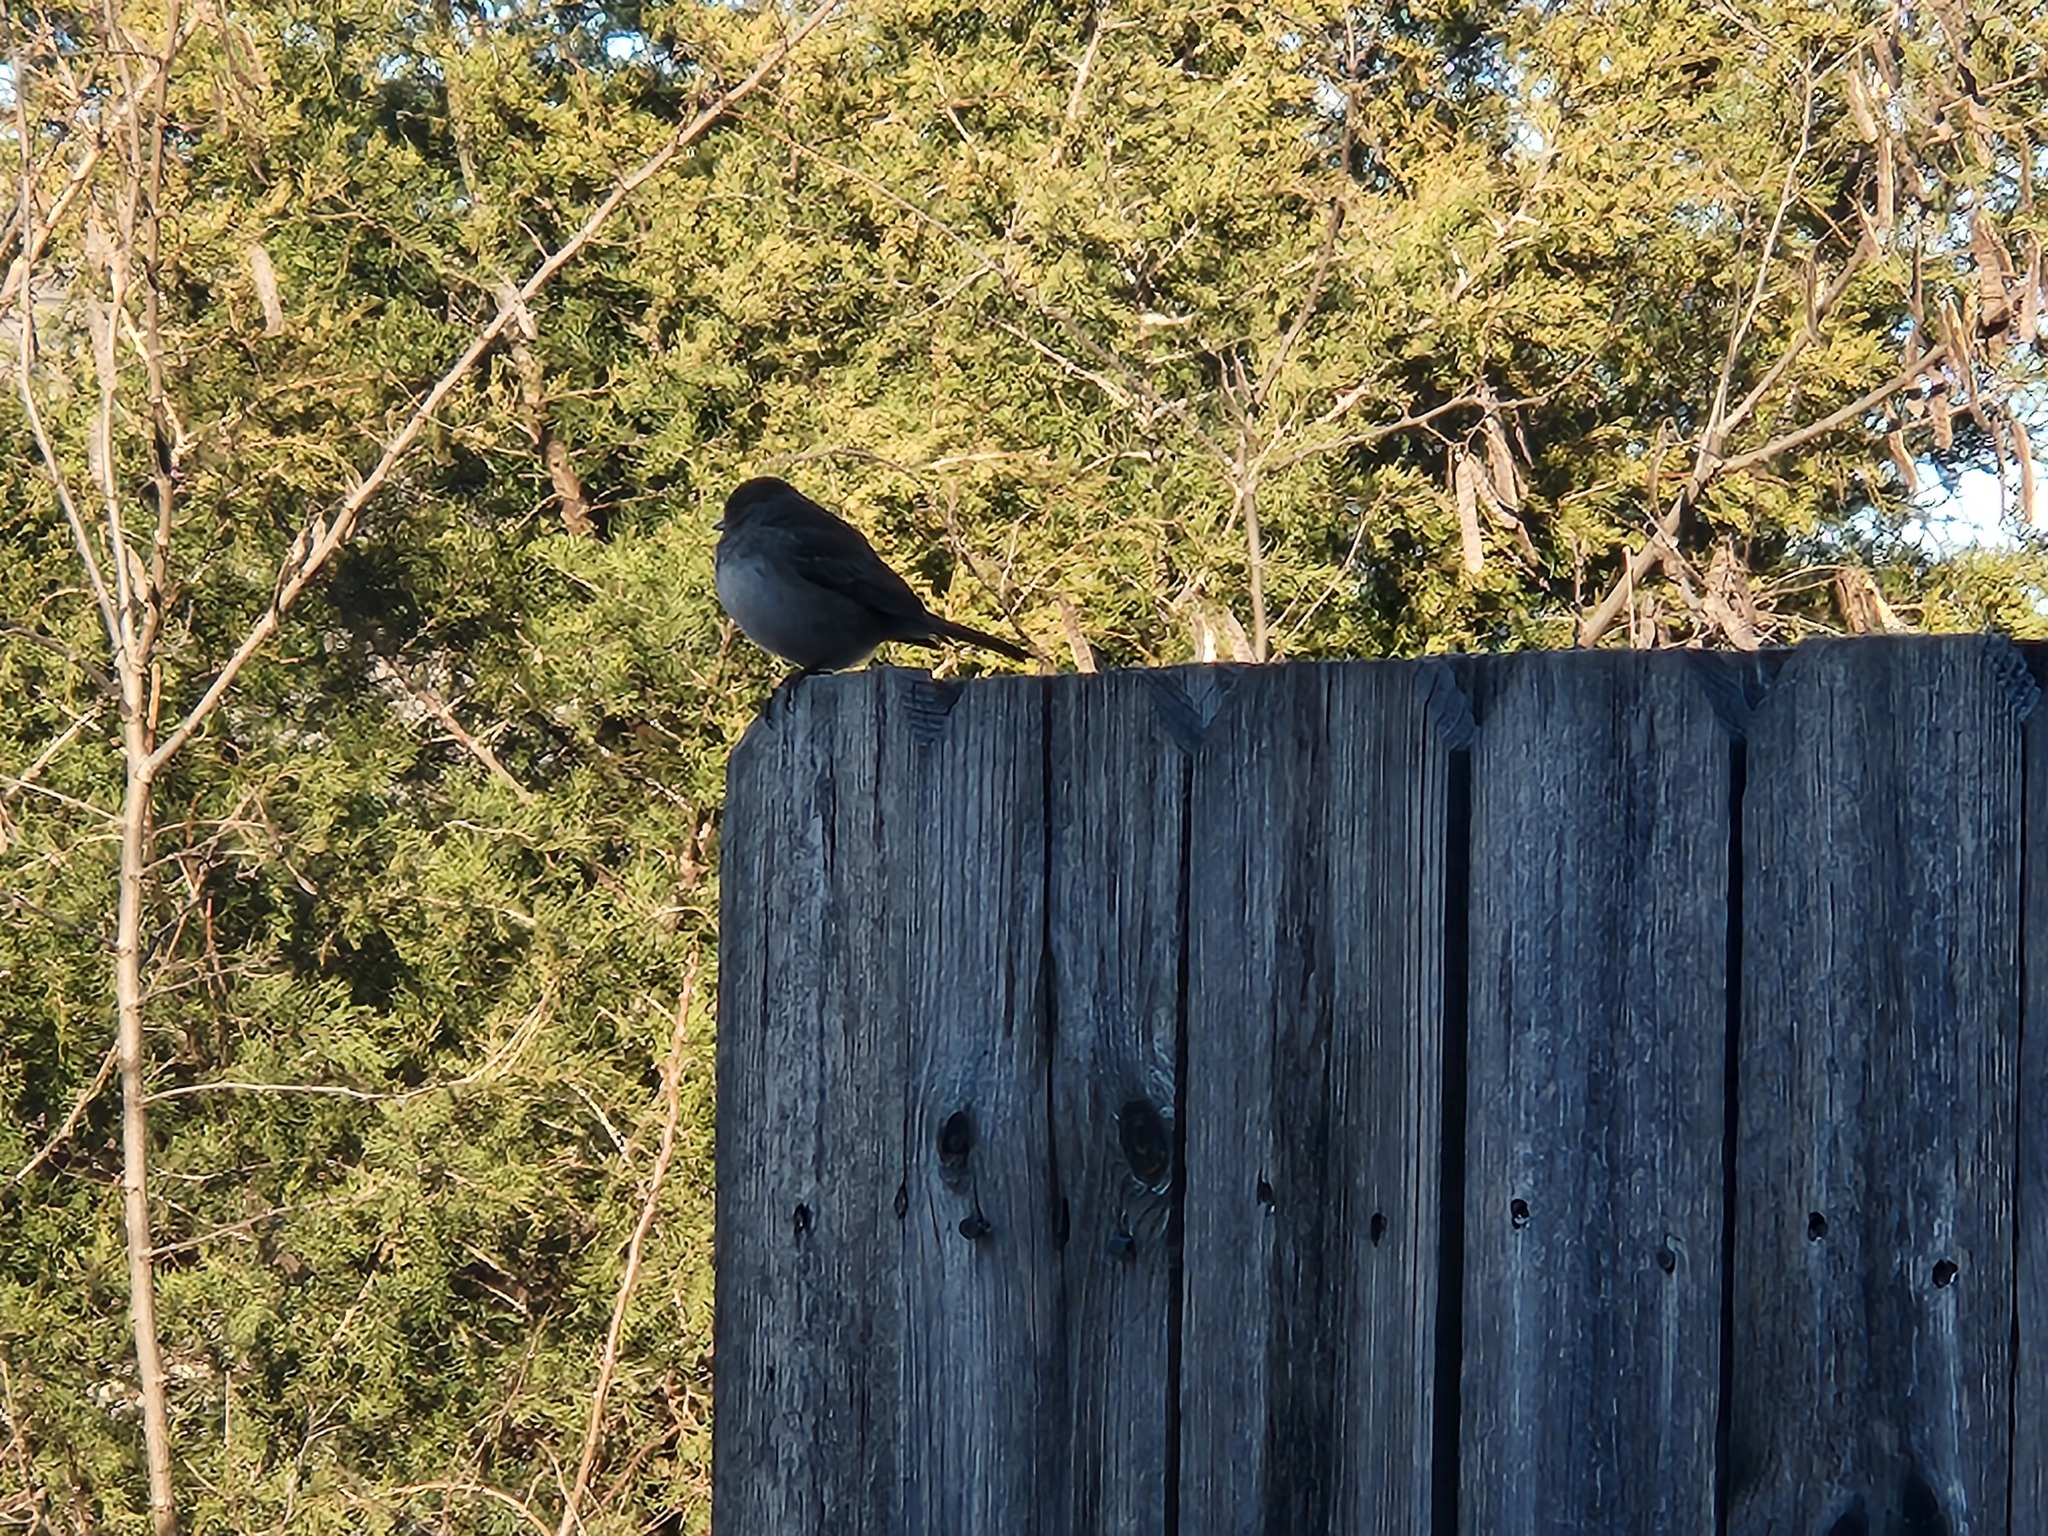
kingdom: Animalia
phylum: Chordata
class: Aves
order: Passeriformes
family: Passerellidae
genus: Junco
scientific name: Junco hyemalis
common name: Dark-eyed junco
